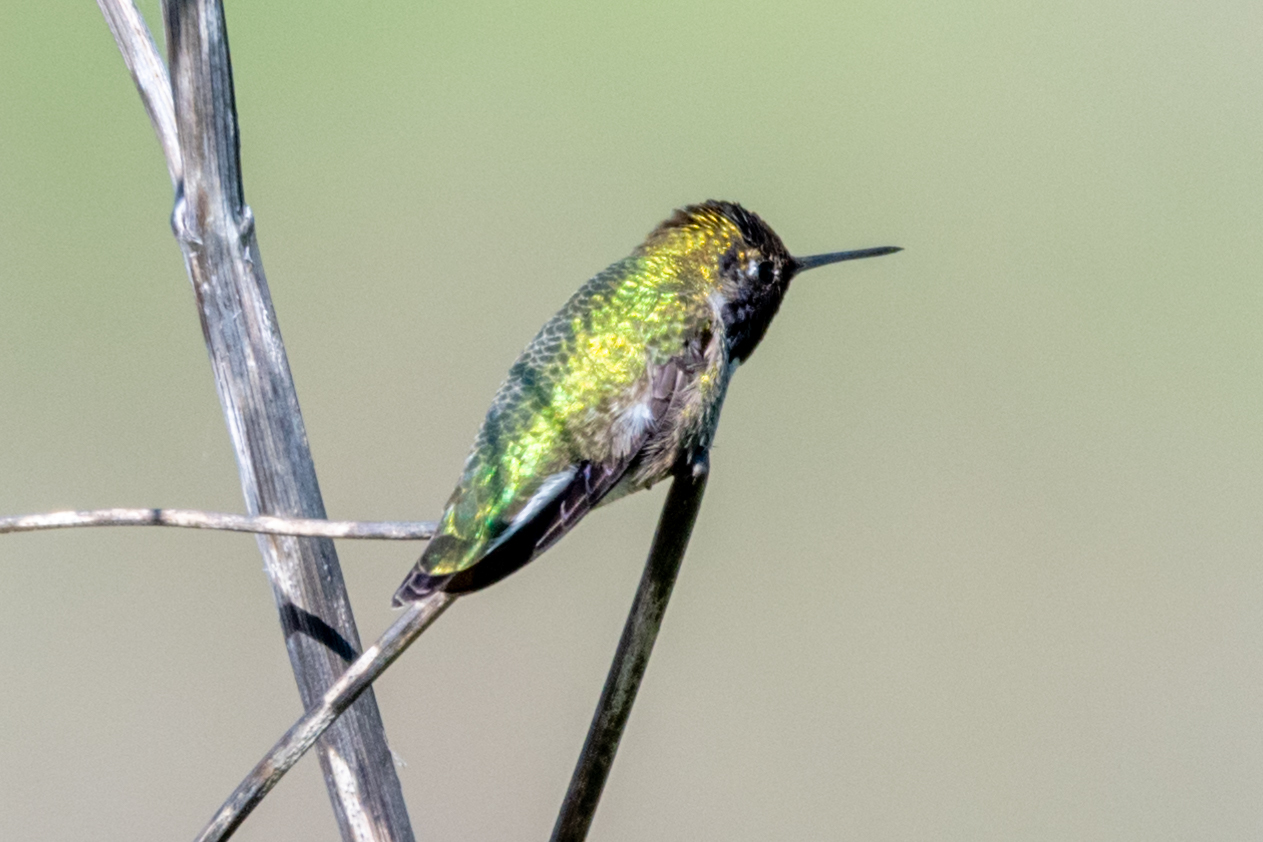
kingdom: Animalia
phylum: Chordata
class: Aves
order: Apodiformes
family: Trochilidae
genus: Calypte
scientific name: Calypte anna
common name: Anna's hummingbird
